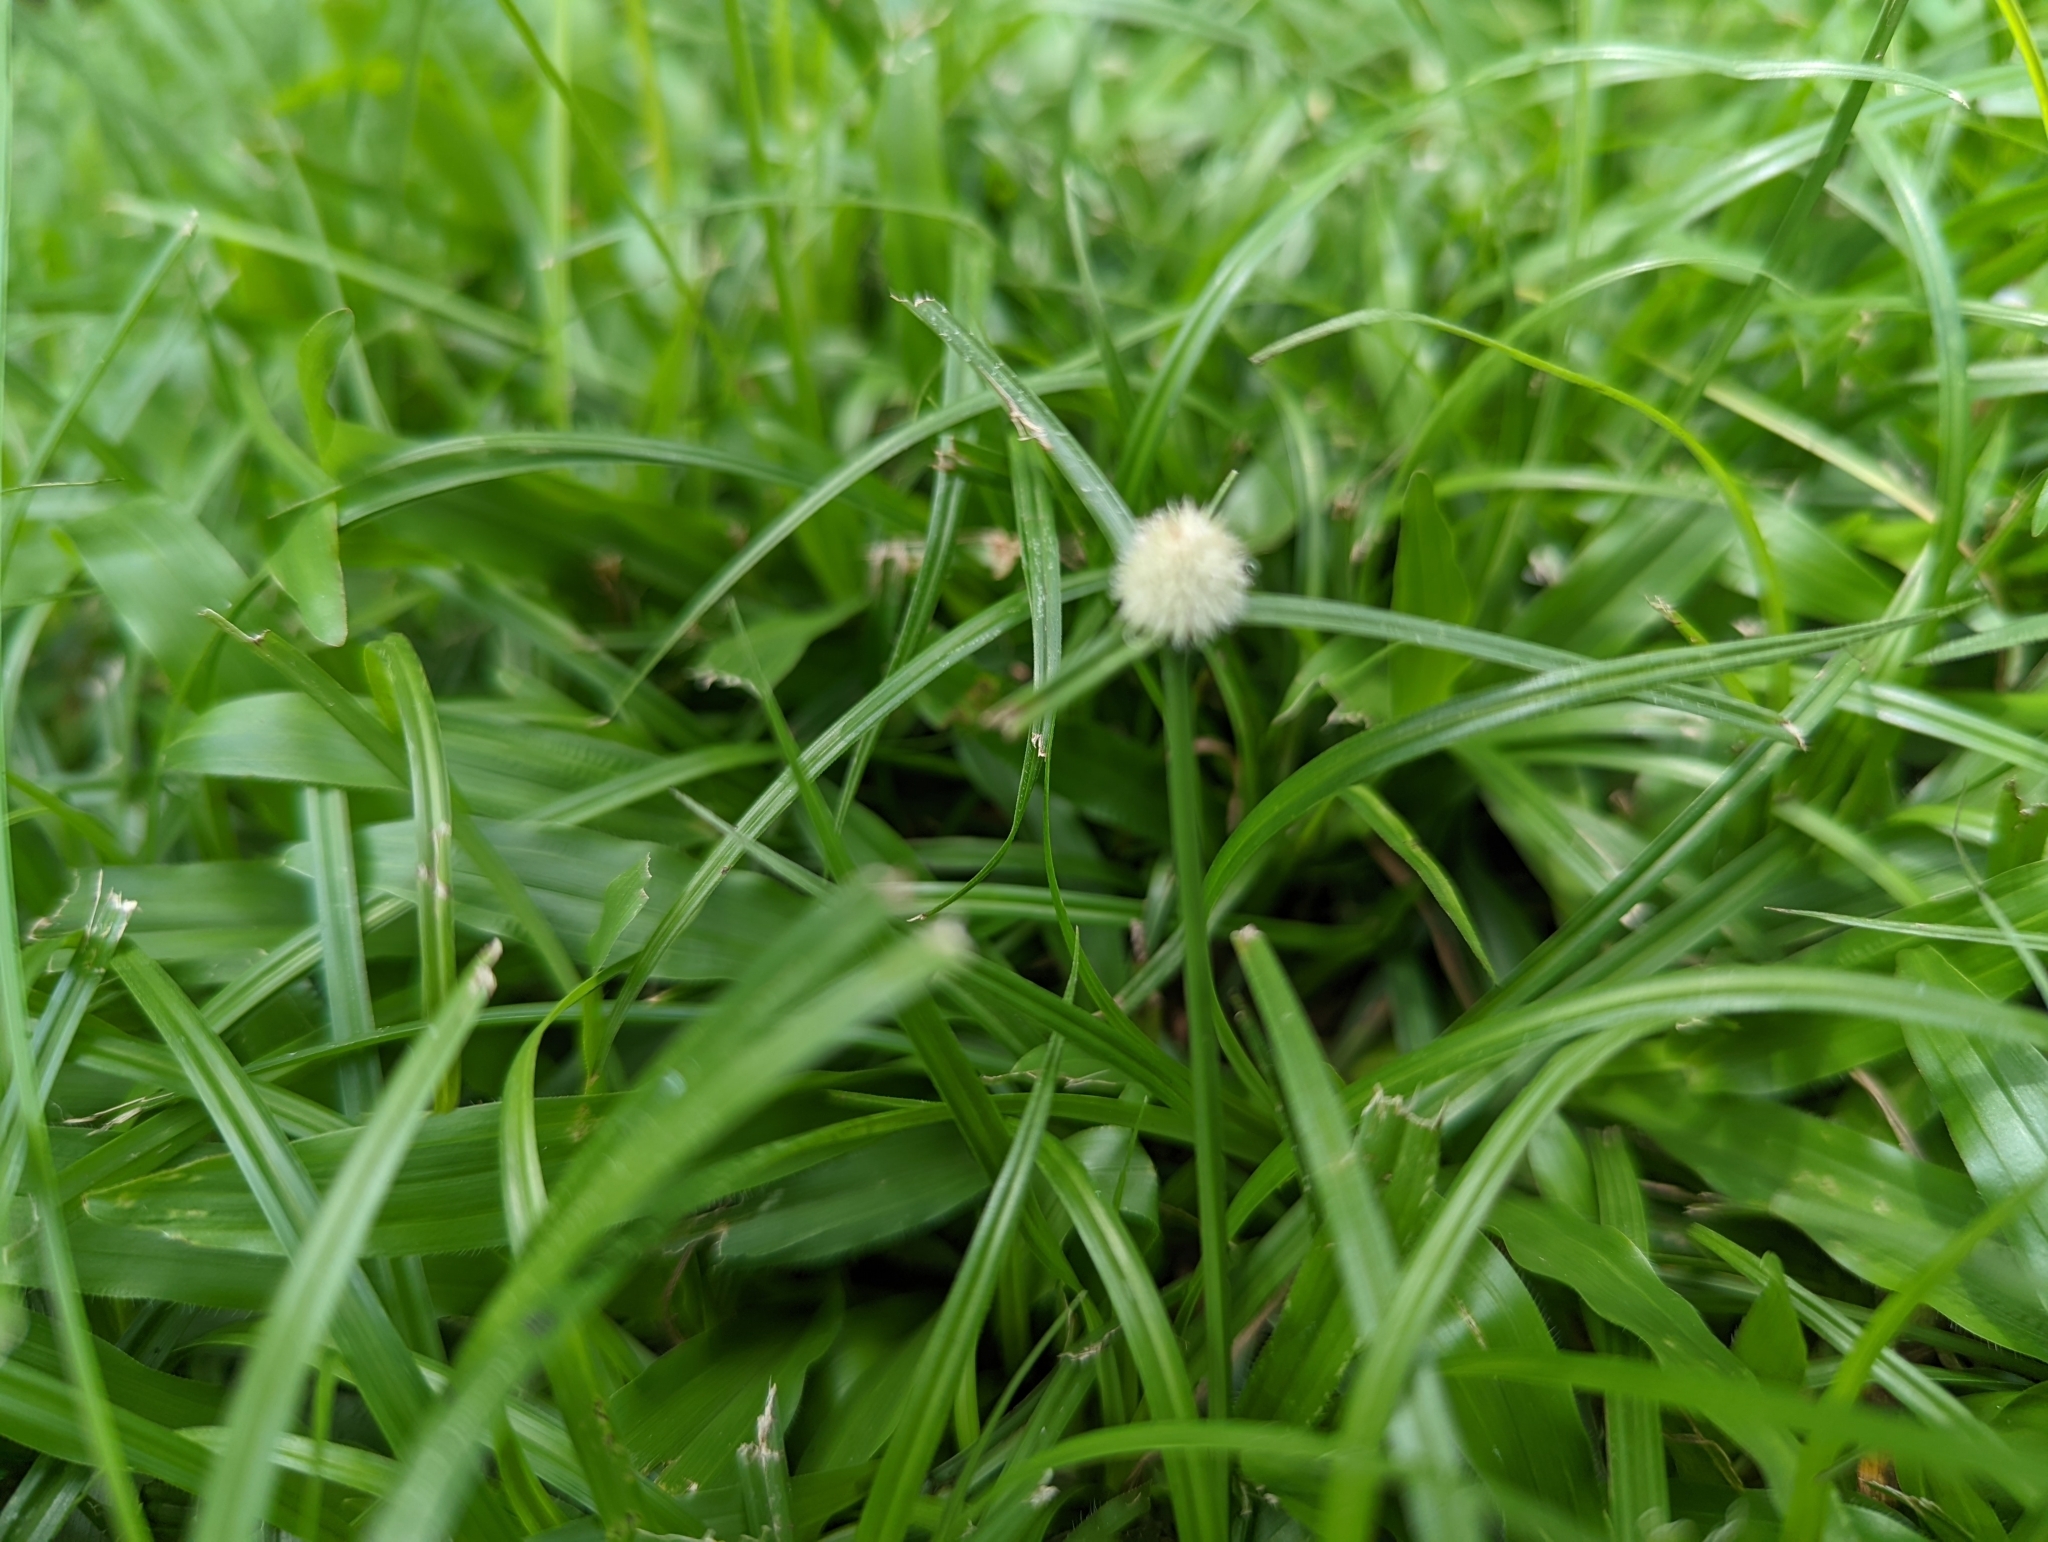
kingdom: Plantae
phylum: Tracheophyta
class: Liliopsida
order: Poales
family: Cyperaceae
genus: Cyperus
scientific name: Cyperus mindorensis
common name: Flatsedge
